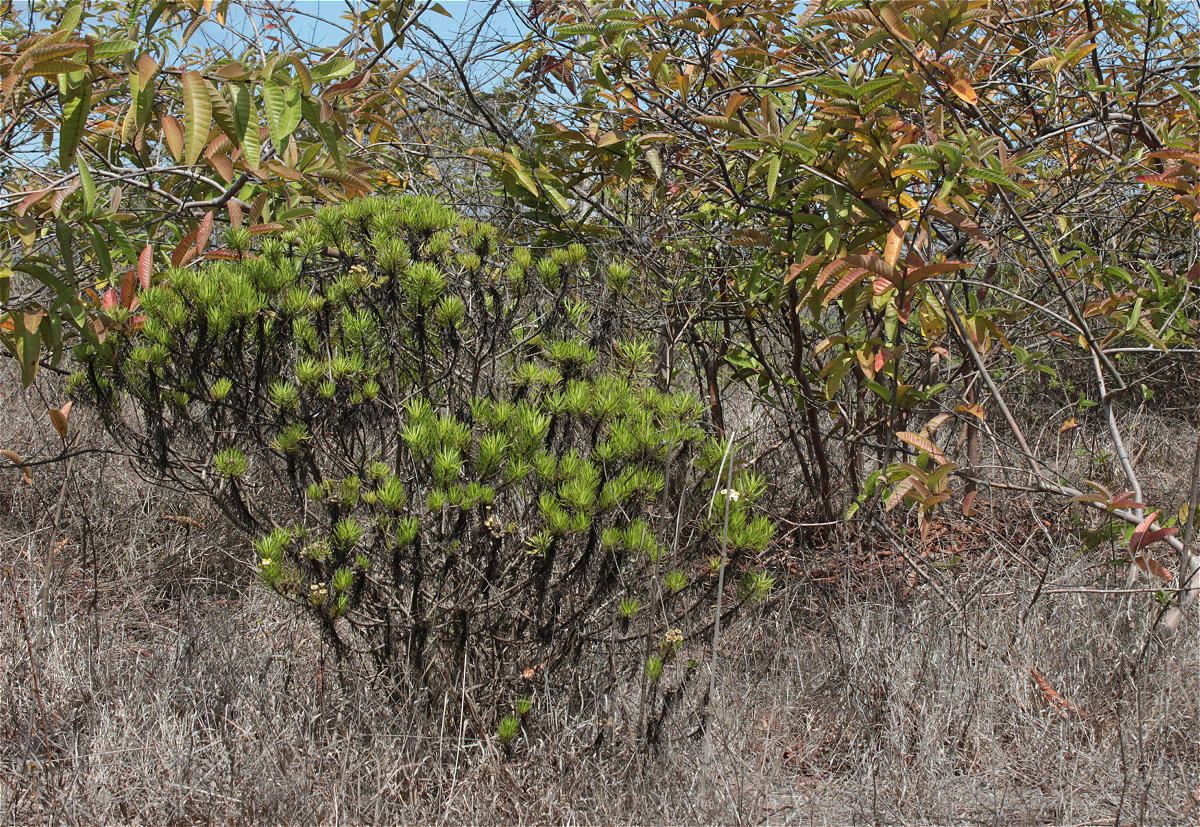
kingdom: Plantae
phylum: Tracheophyta
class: Magnoliopsida
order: Asterales
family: Asteraceae
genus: Erigeron
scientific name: Erigeron tenuifolius
